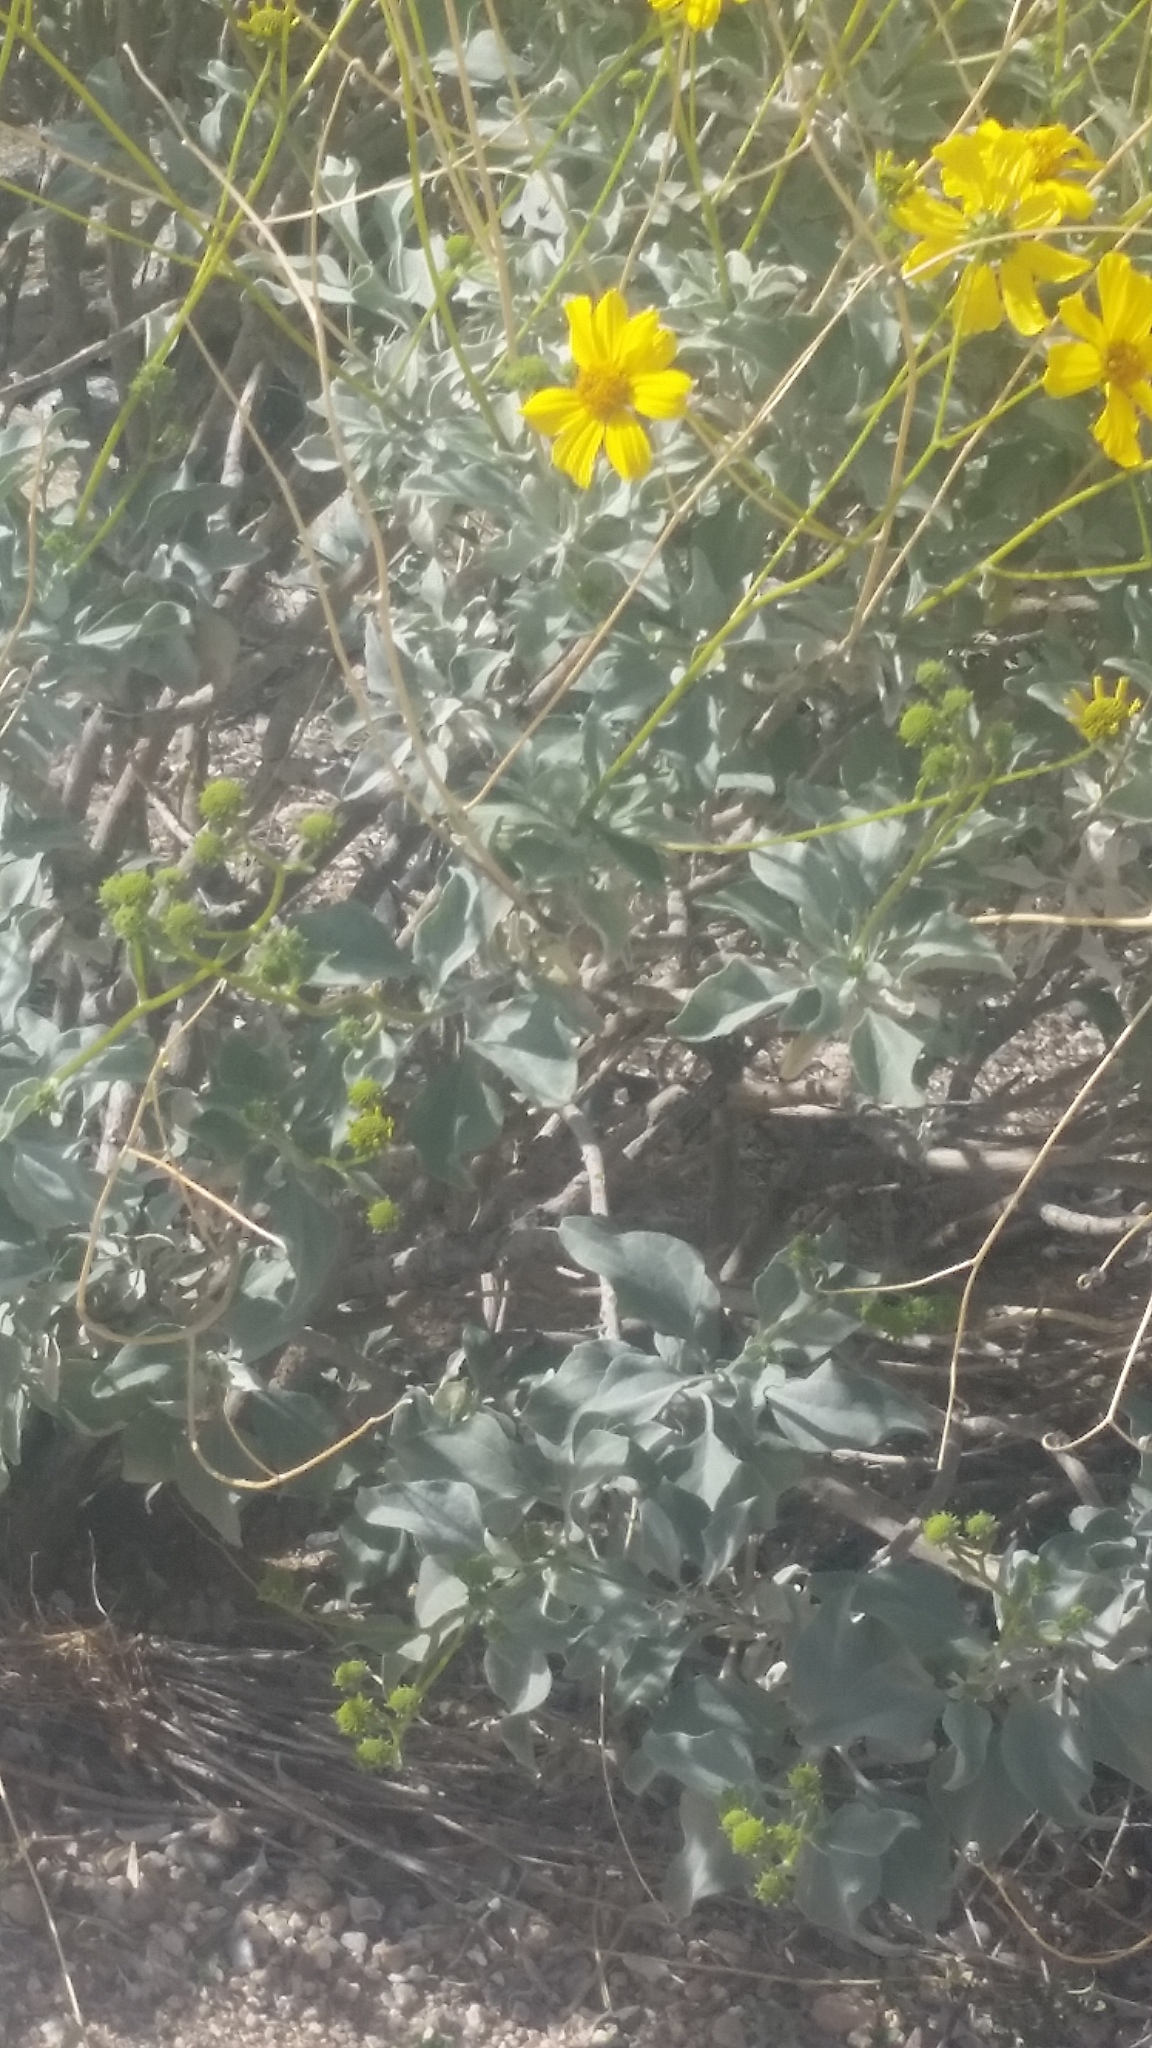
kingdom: Plantae
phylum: Tracheophyta
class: Magnoliopsida
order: Asterales
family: Asteraceae
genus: Encelia
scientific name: Encelia farinosa
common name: Brittlebush
